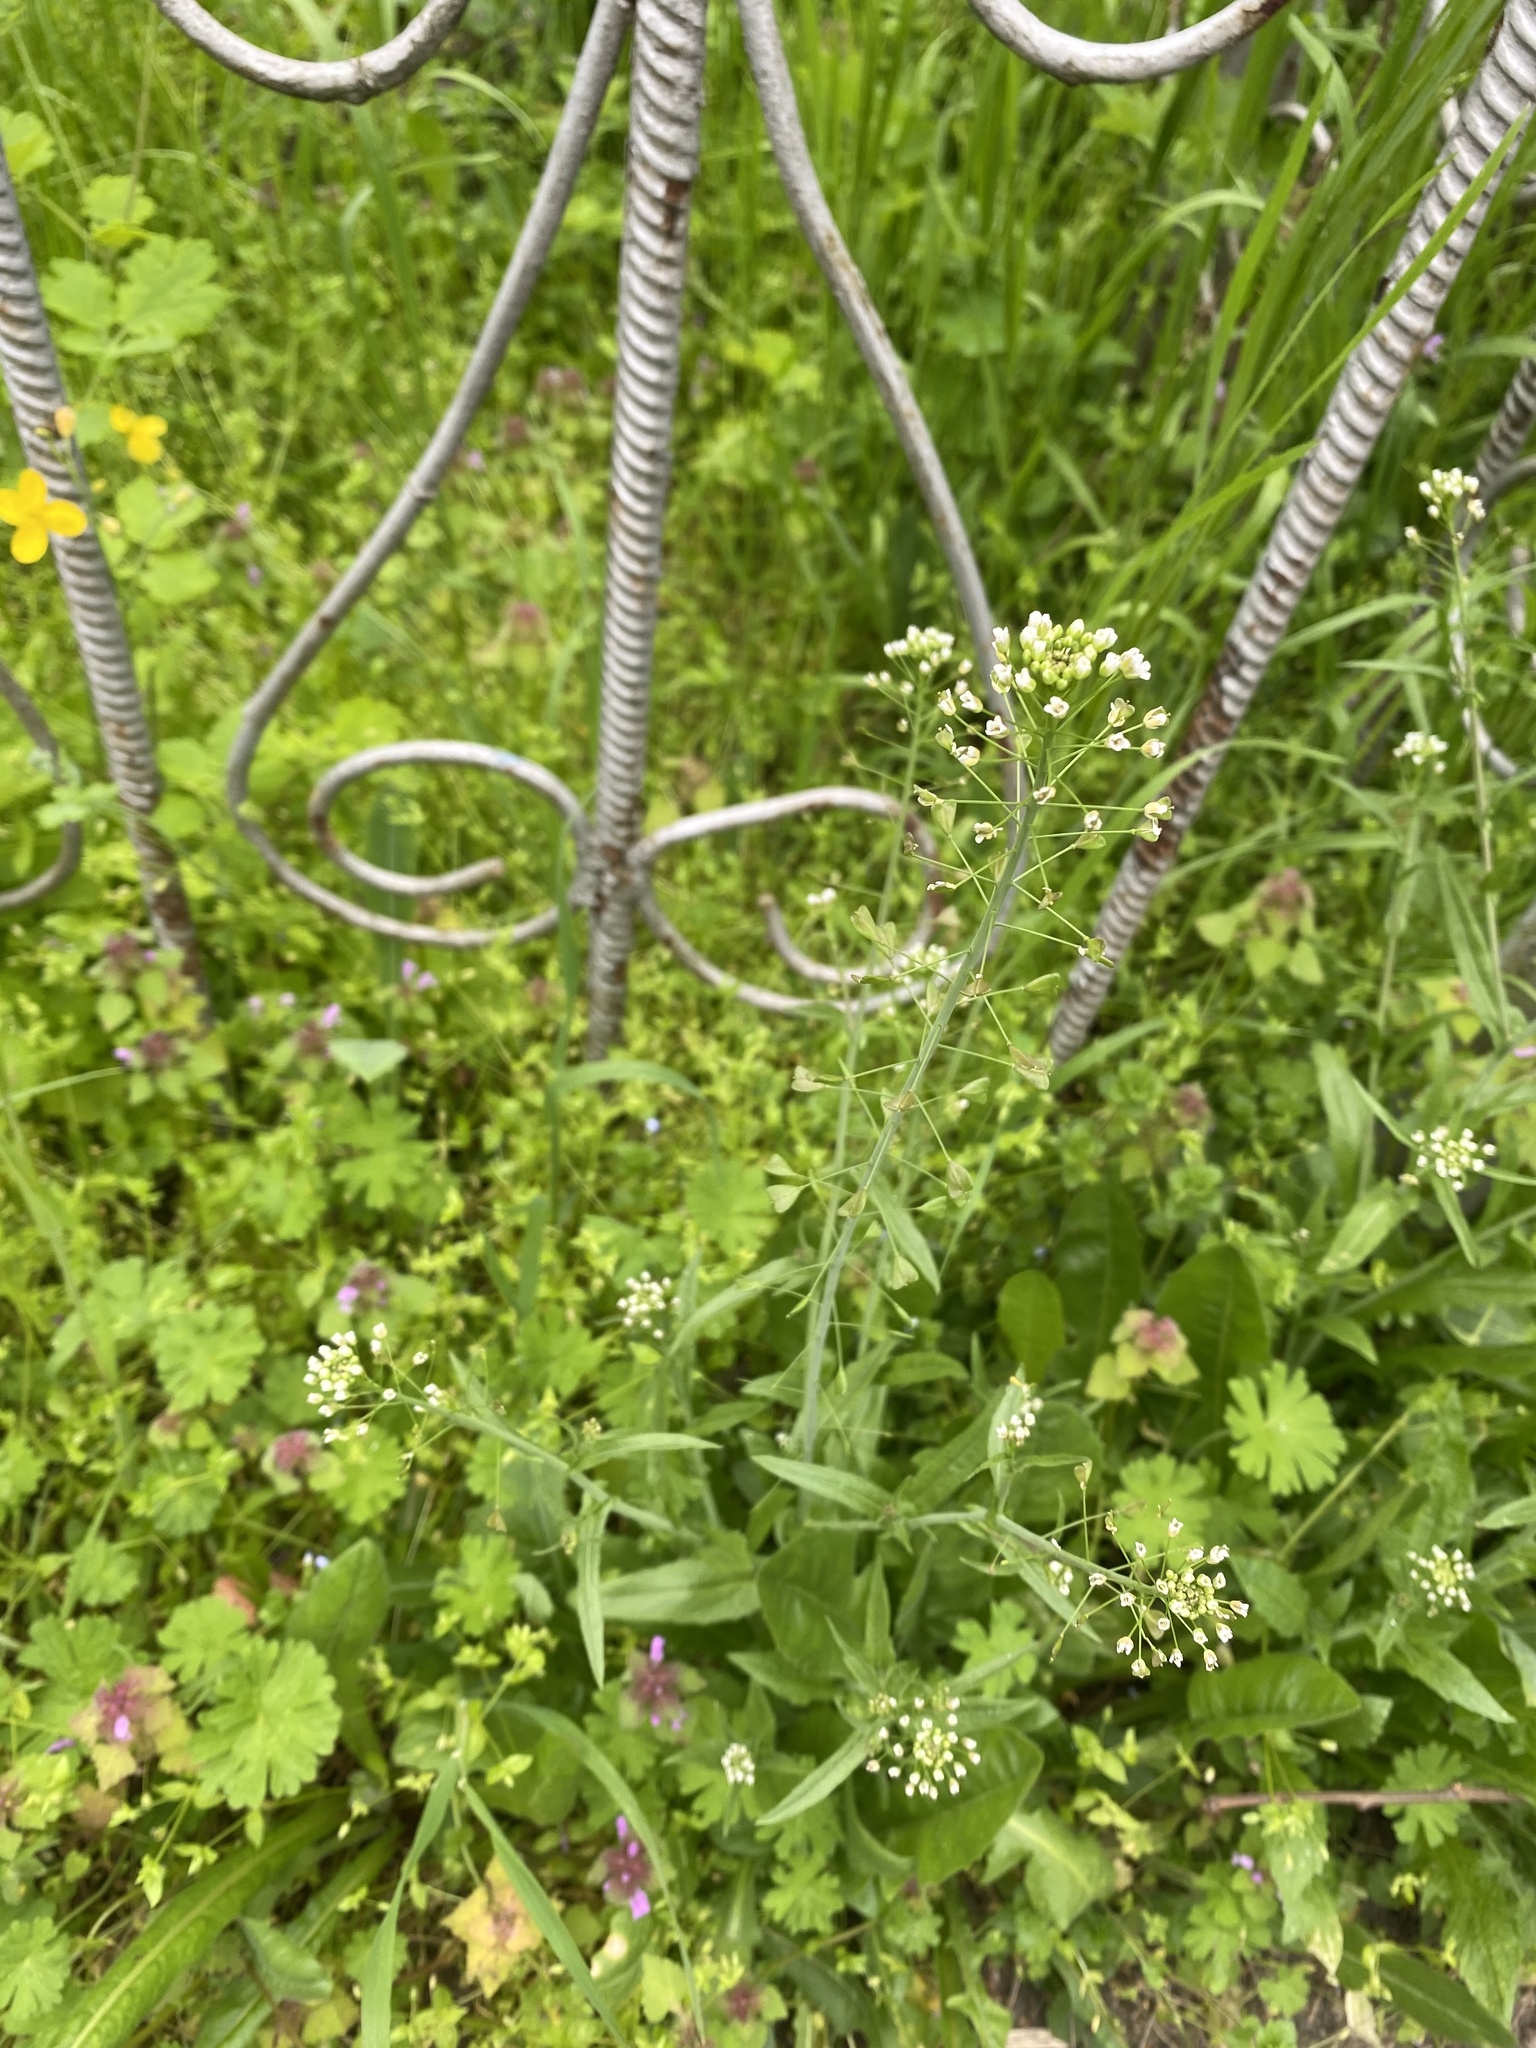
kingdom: Plantae
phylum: Tracheophyta
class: Magnoliopsida
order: Brassicales
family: Brassicaceae
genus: Capsella
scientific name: Capsella bursa-pastoris
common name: Shepherd's purse
